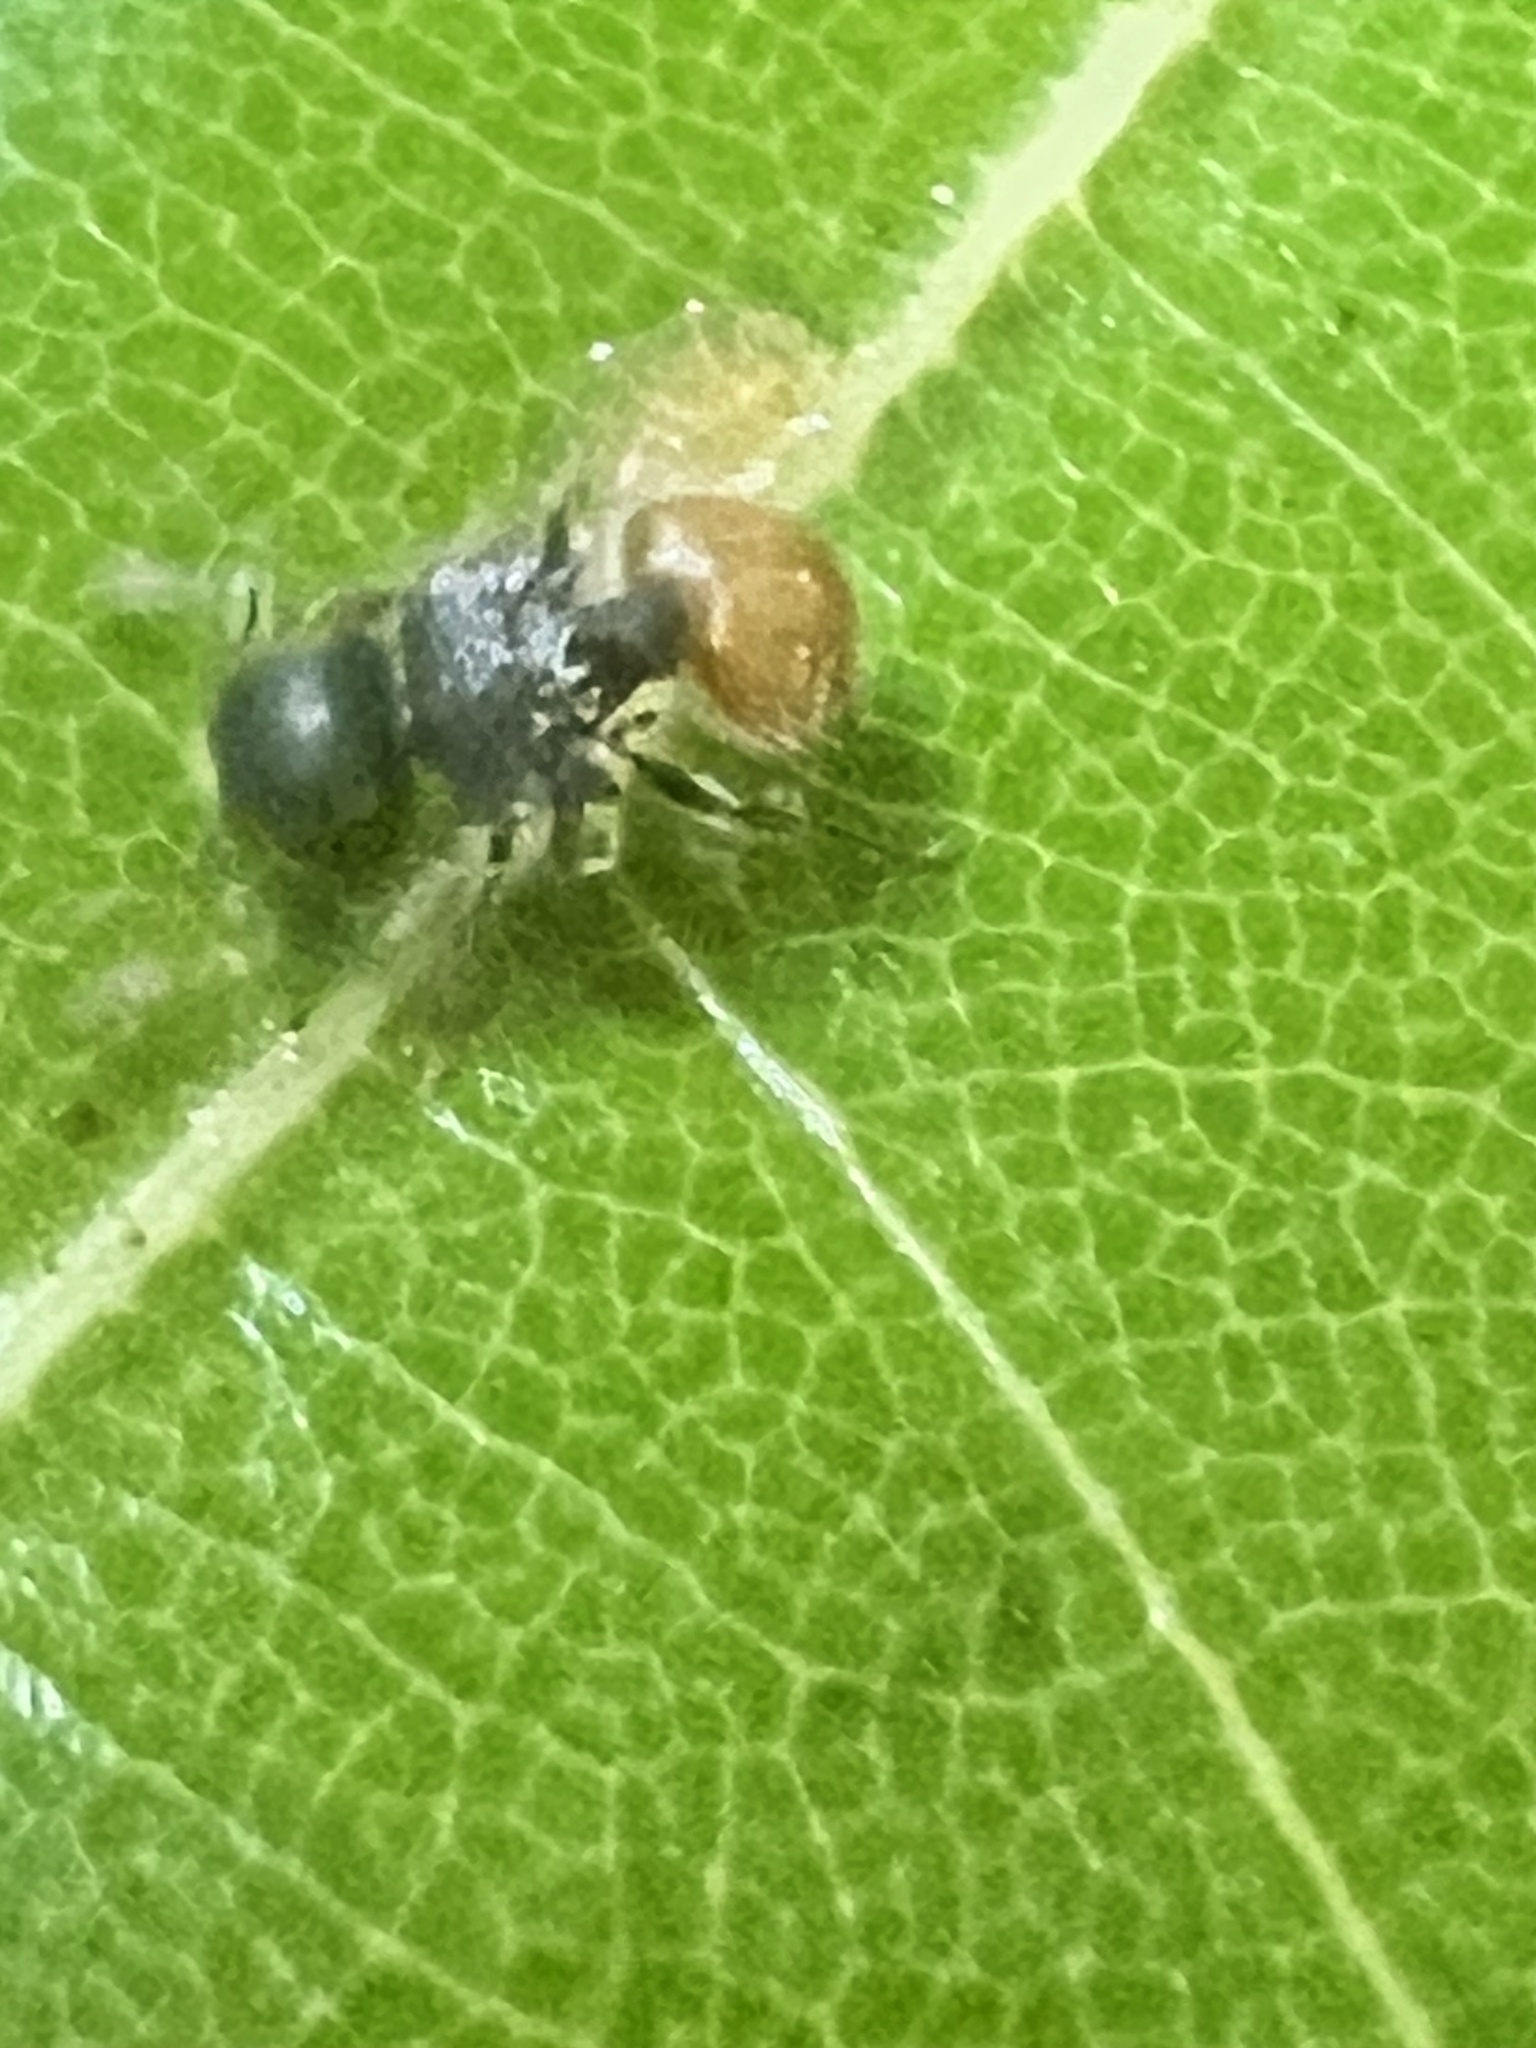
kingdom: Animalia
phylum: Arthropoda
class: Insecta
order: Hymenoptera
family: Formicidae
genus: Meranoplus
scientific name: Meranoplus hirsutus
